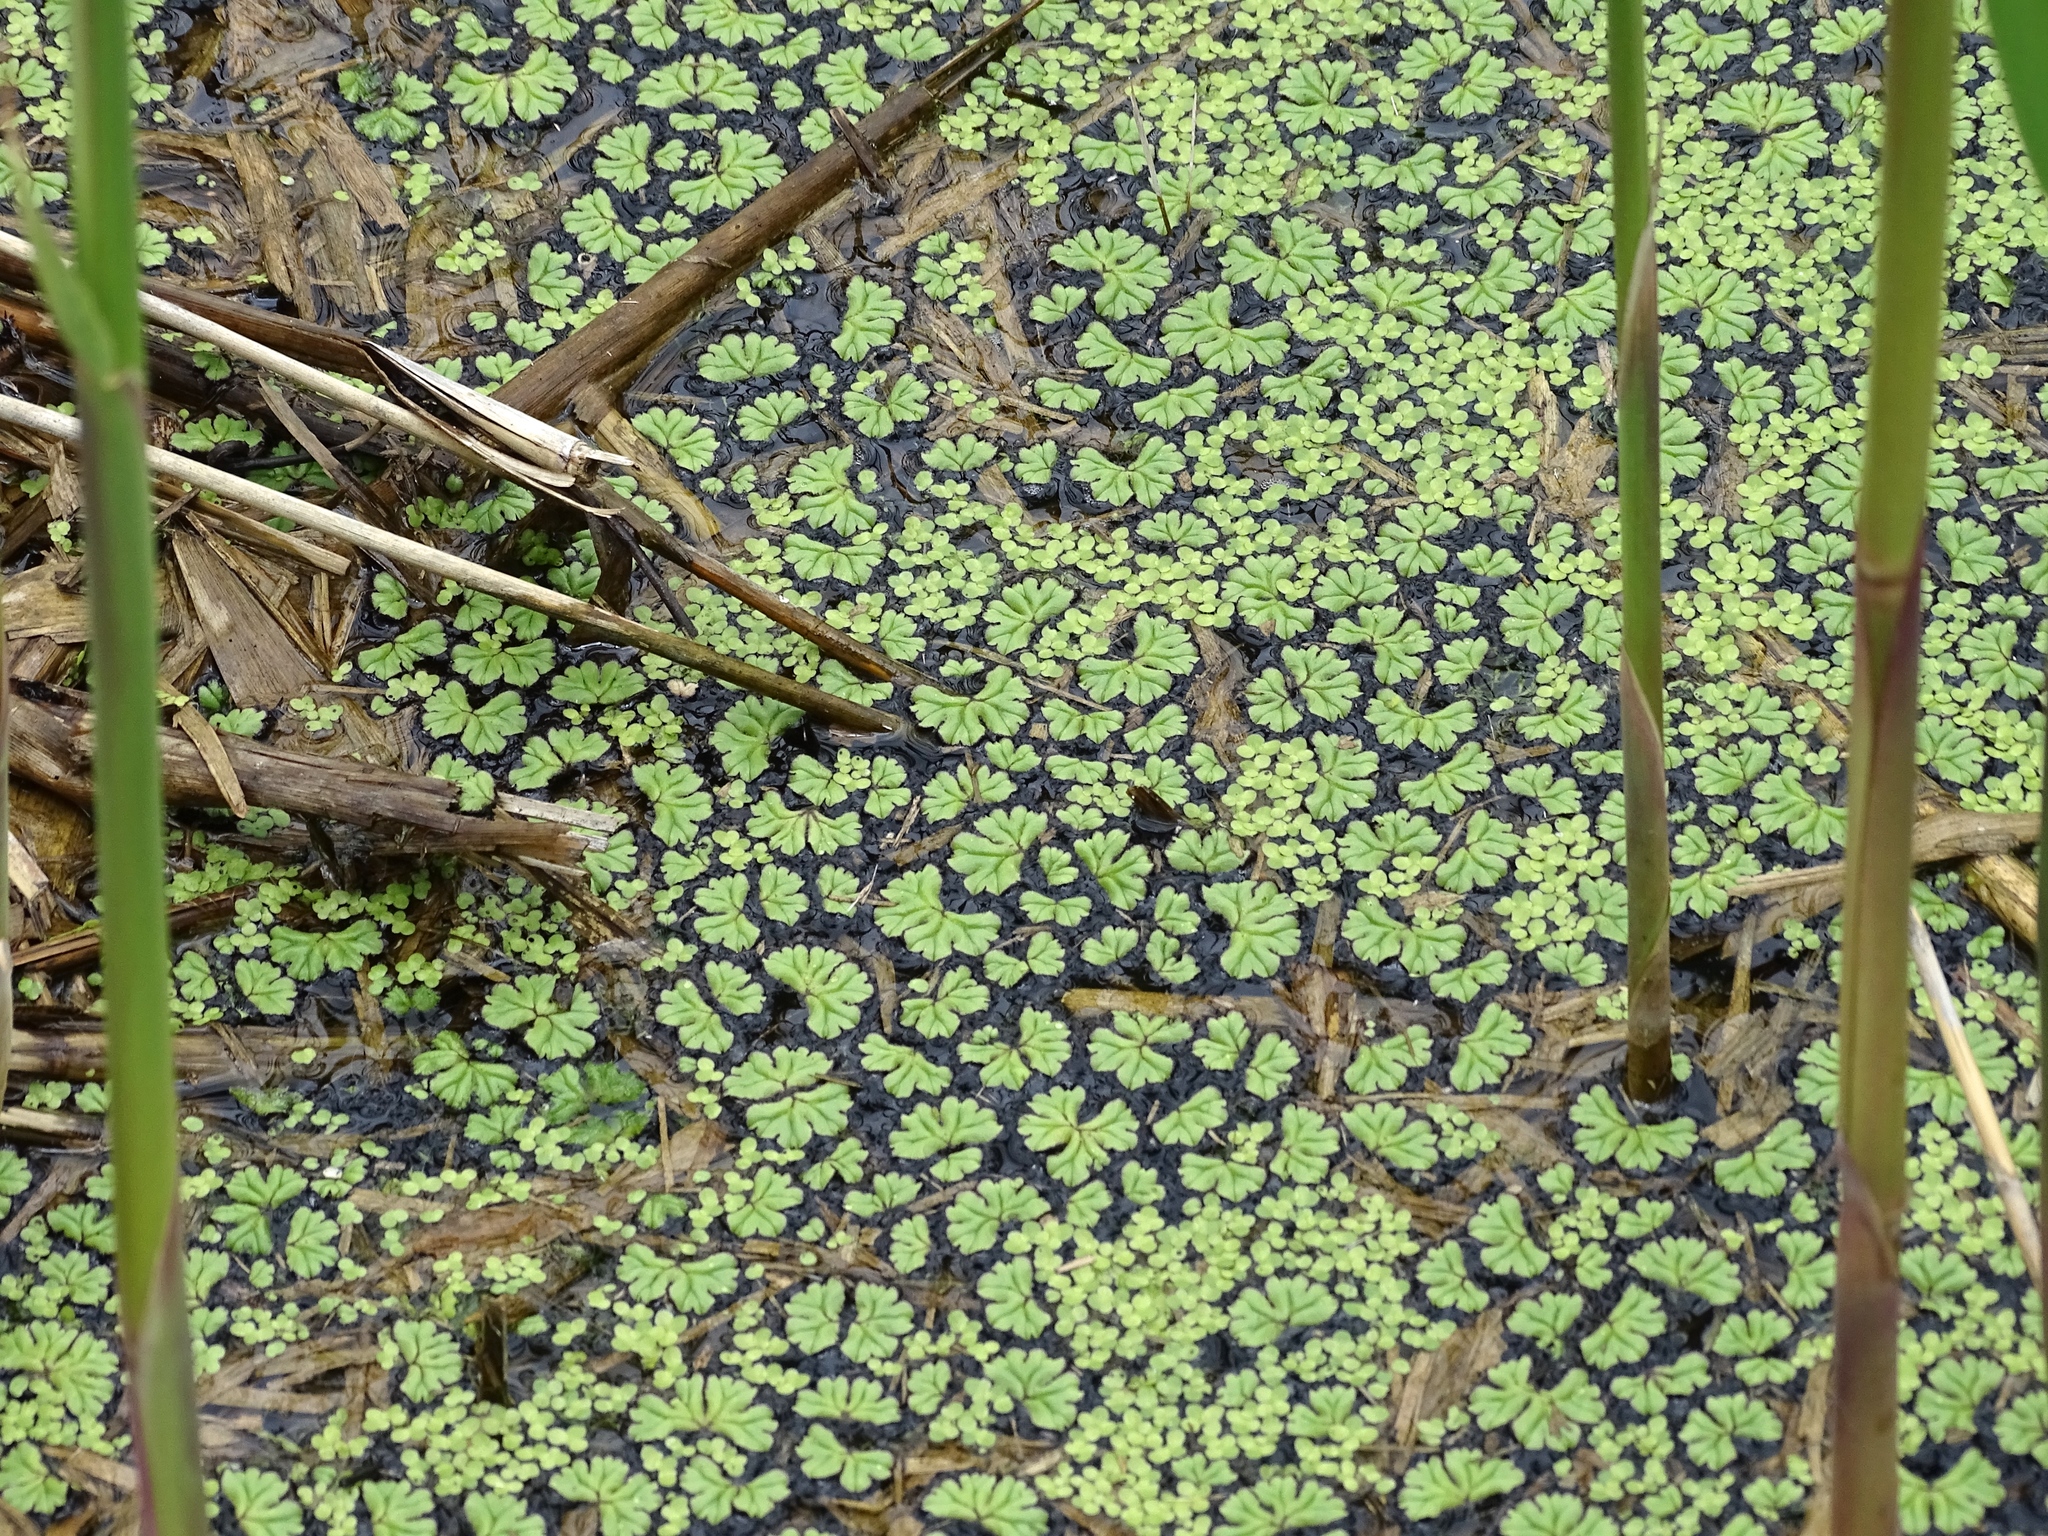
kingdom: Plantae
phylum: Marchantiophyta
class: Marchantiopsida
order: Marchantiales
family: Ricciaceae
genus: Ricciocarpos
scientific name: Ricciocarpos natans
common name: Purple-fringed liverwort
